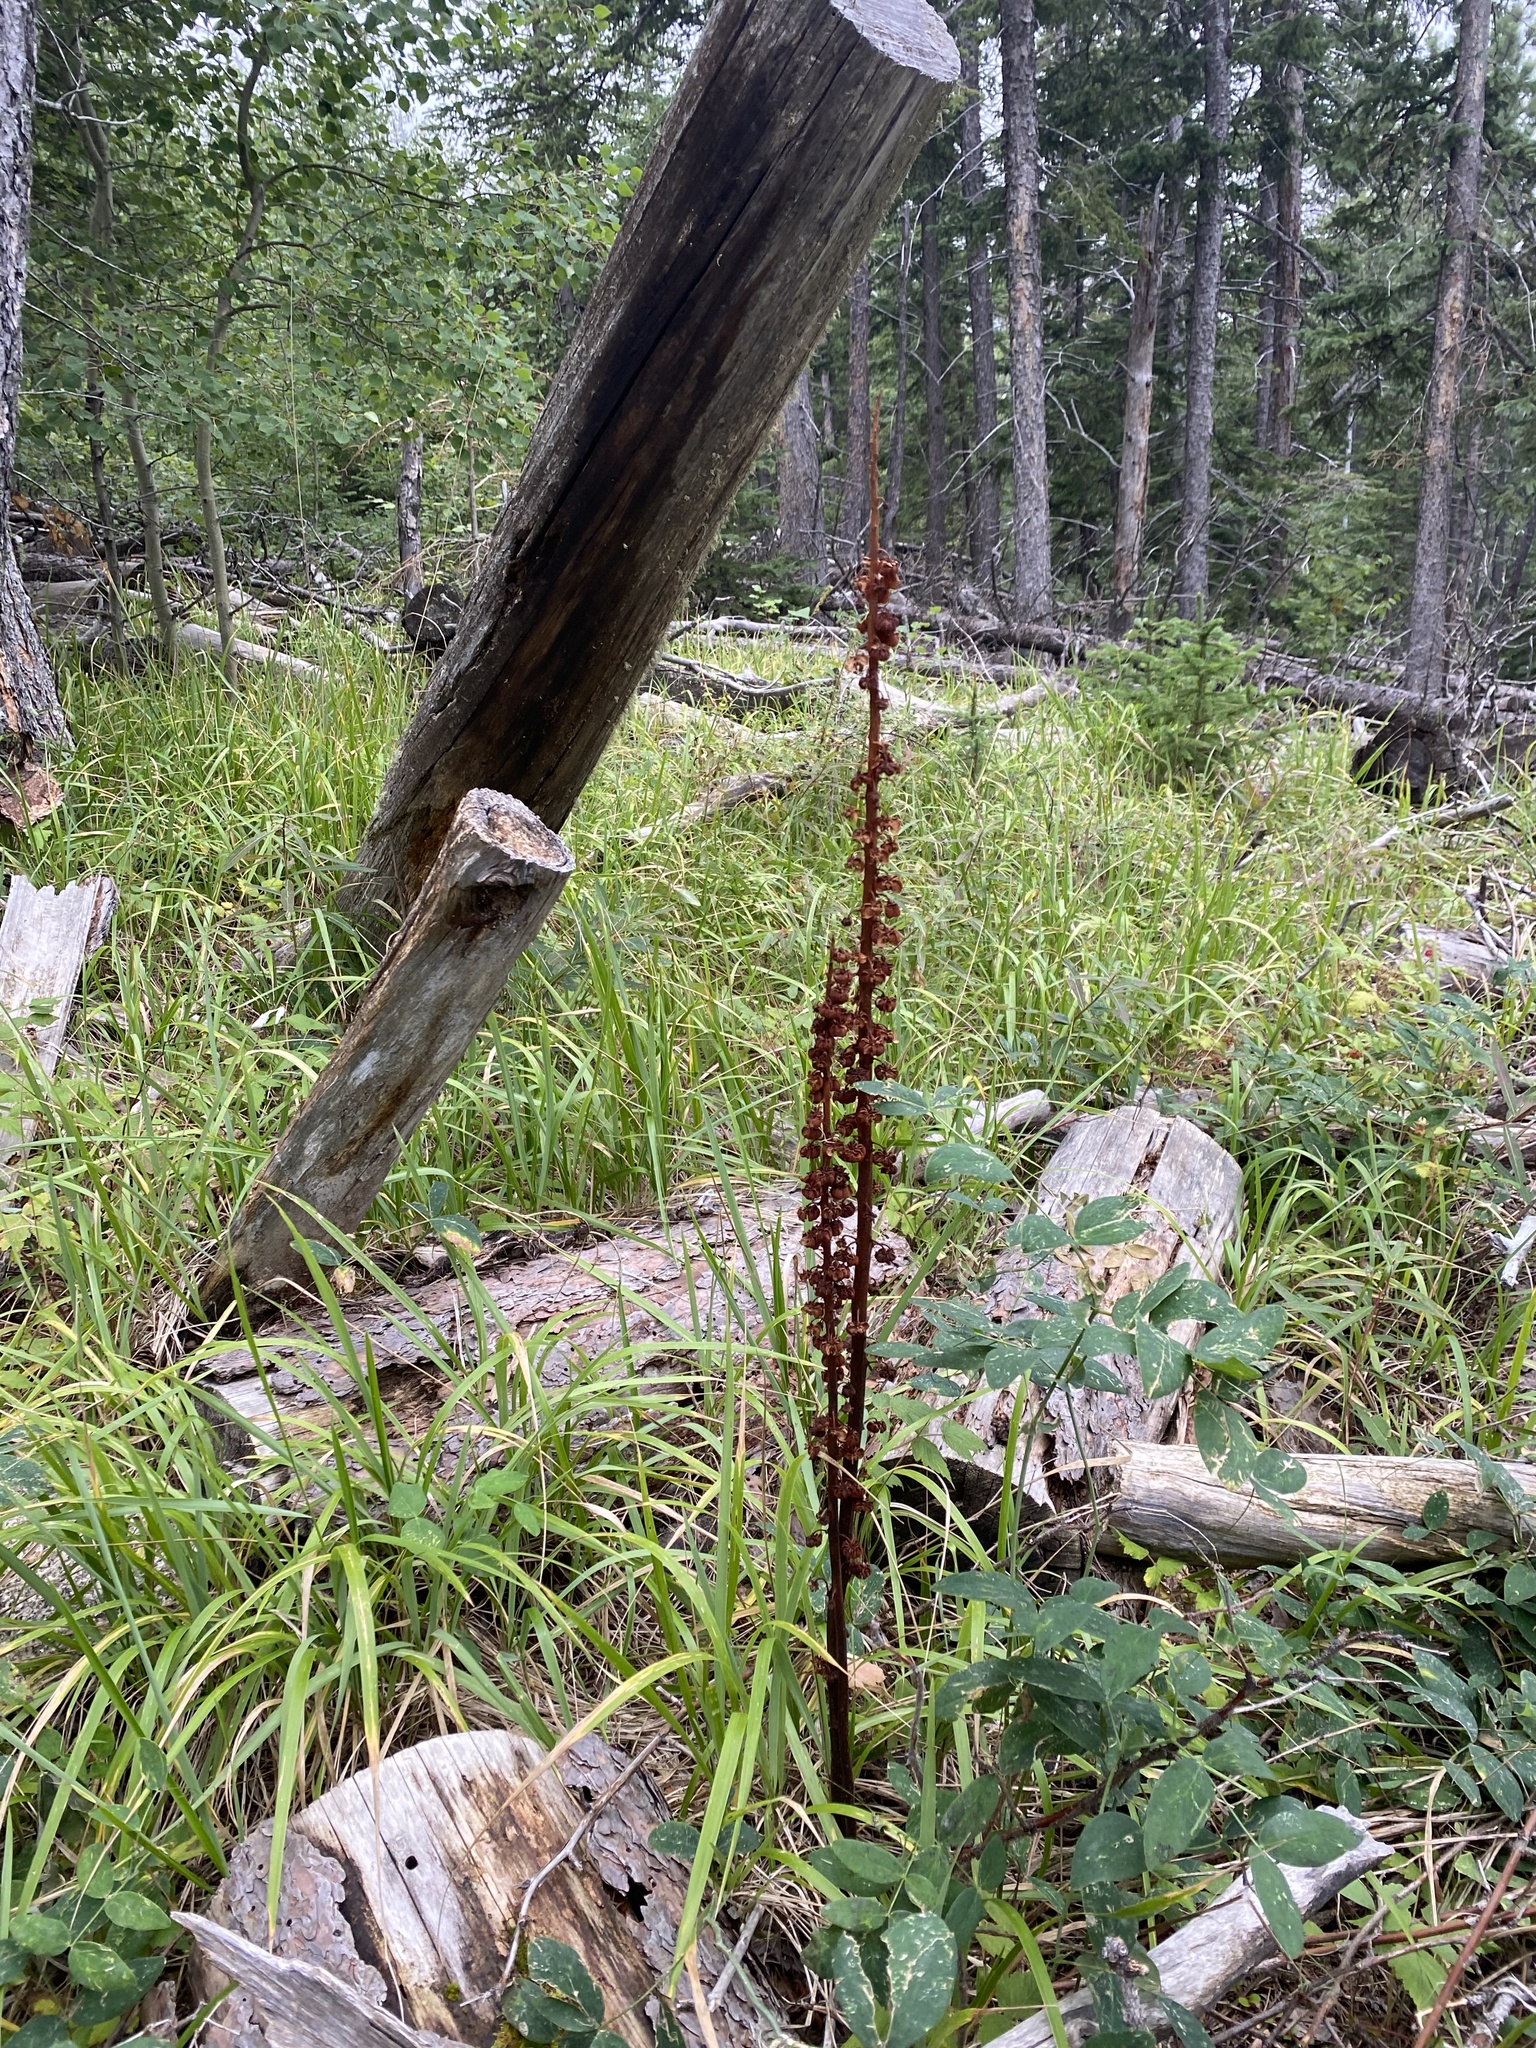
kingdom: Plantae
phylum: Tracheophyta
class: Magnoliopsida
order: Ericales
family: Ericaceae
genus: Pterospora
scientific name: Pterospora andromedea
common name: Giant bird's-nest
